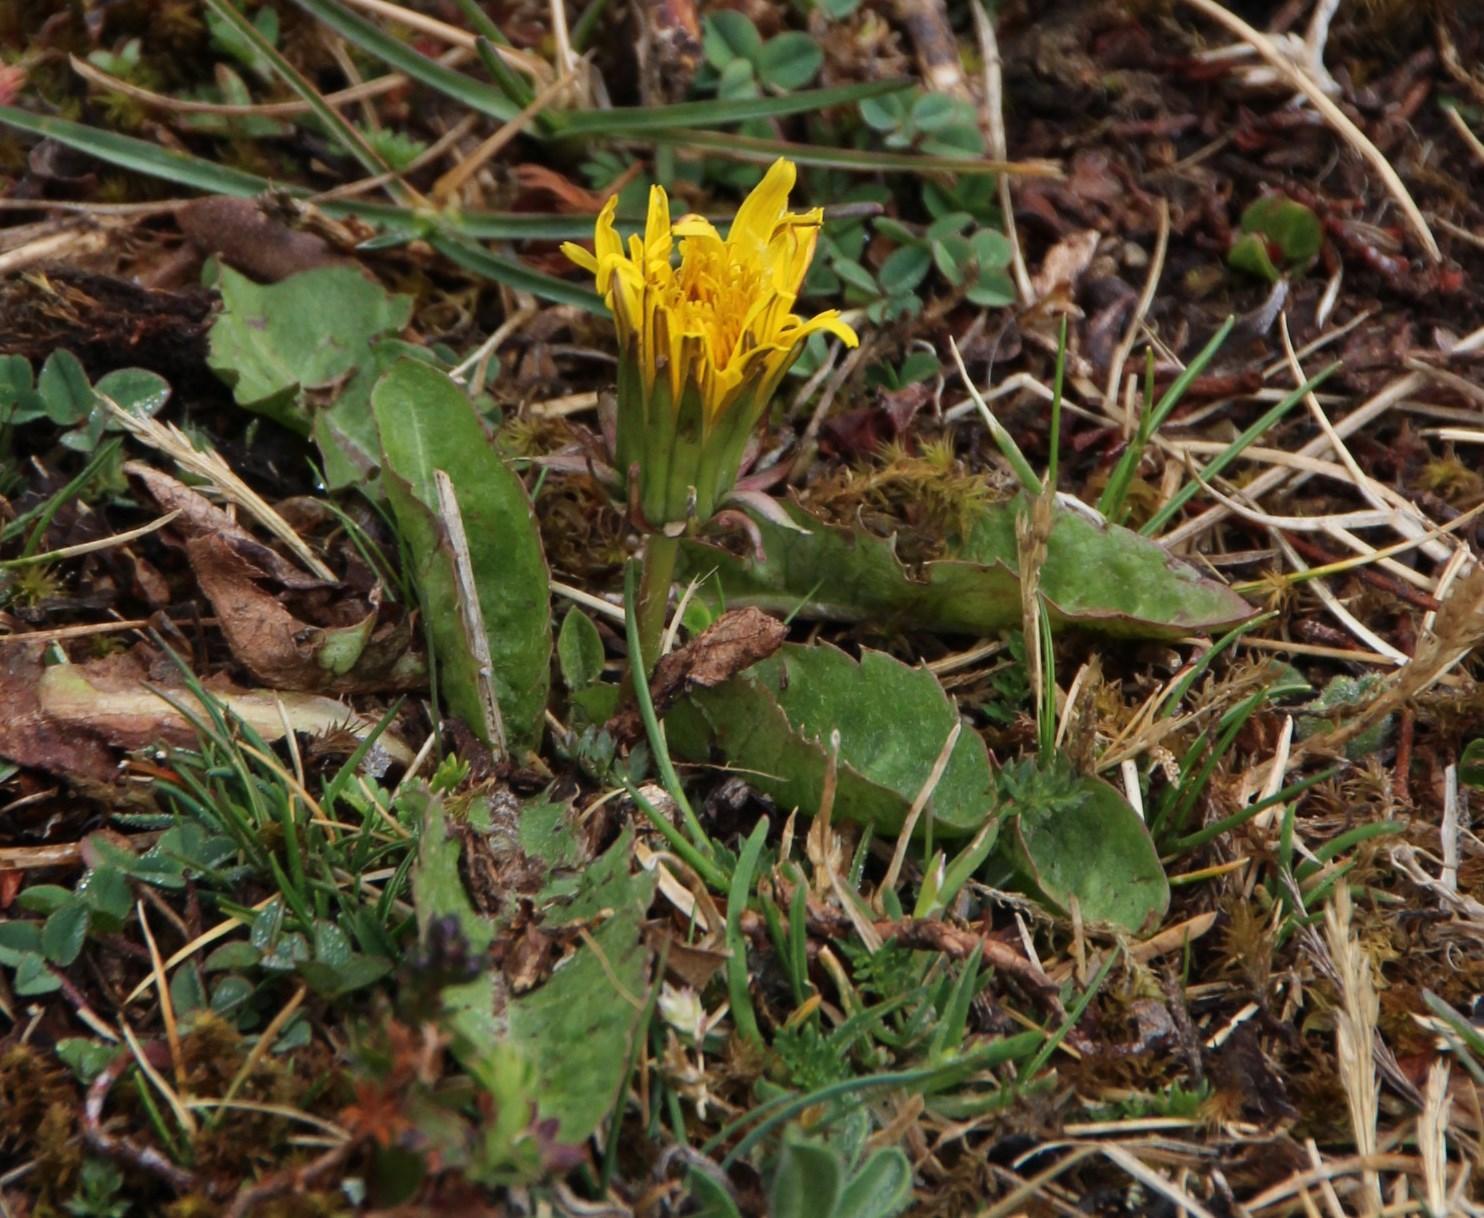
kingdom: Plantae
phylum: Tracheophyta
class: Magnoliopsida
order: Asterales
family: Asteraceae
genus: Taraxacum
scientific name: Taraxacum officinale
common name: Common dandelion
